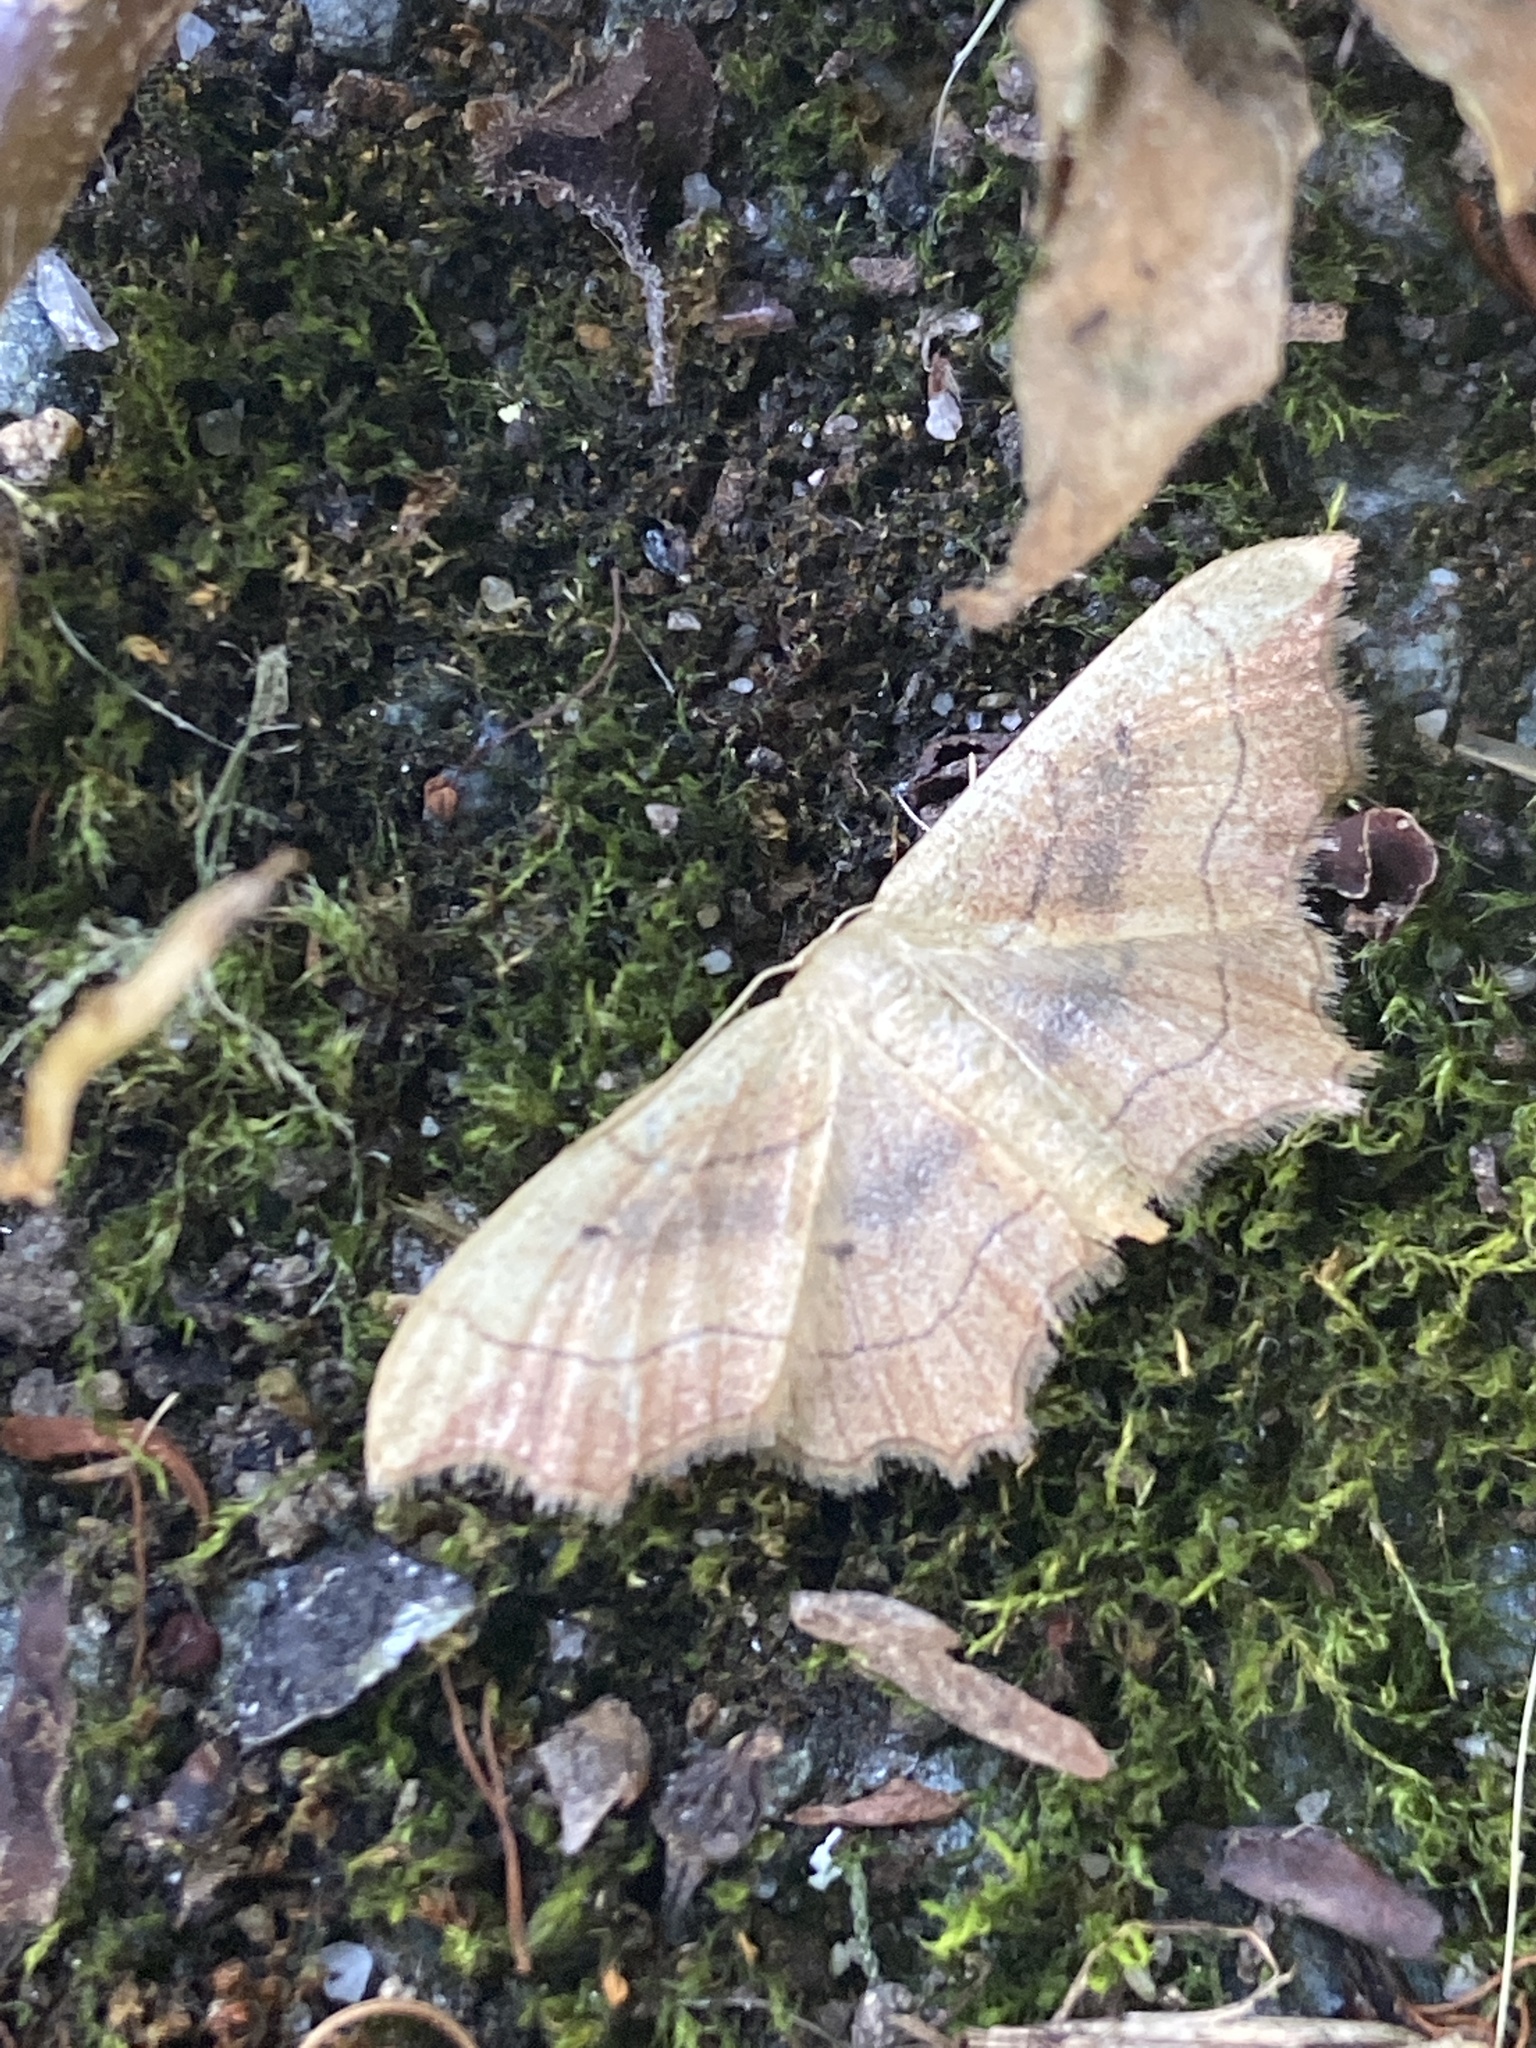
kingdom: Animalia
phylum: Arthropoda
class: Insecta
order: Lepidoptera
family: Geometridae
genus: Idaea
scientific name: Idaea emarginata
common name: Small scallop
